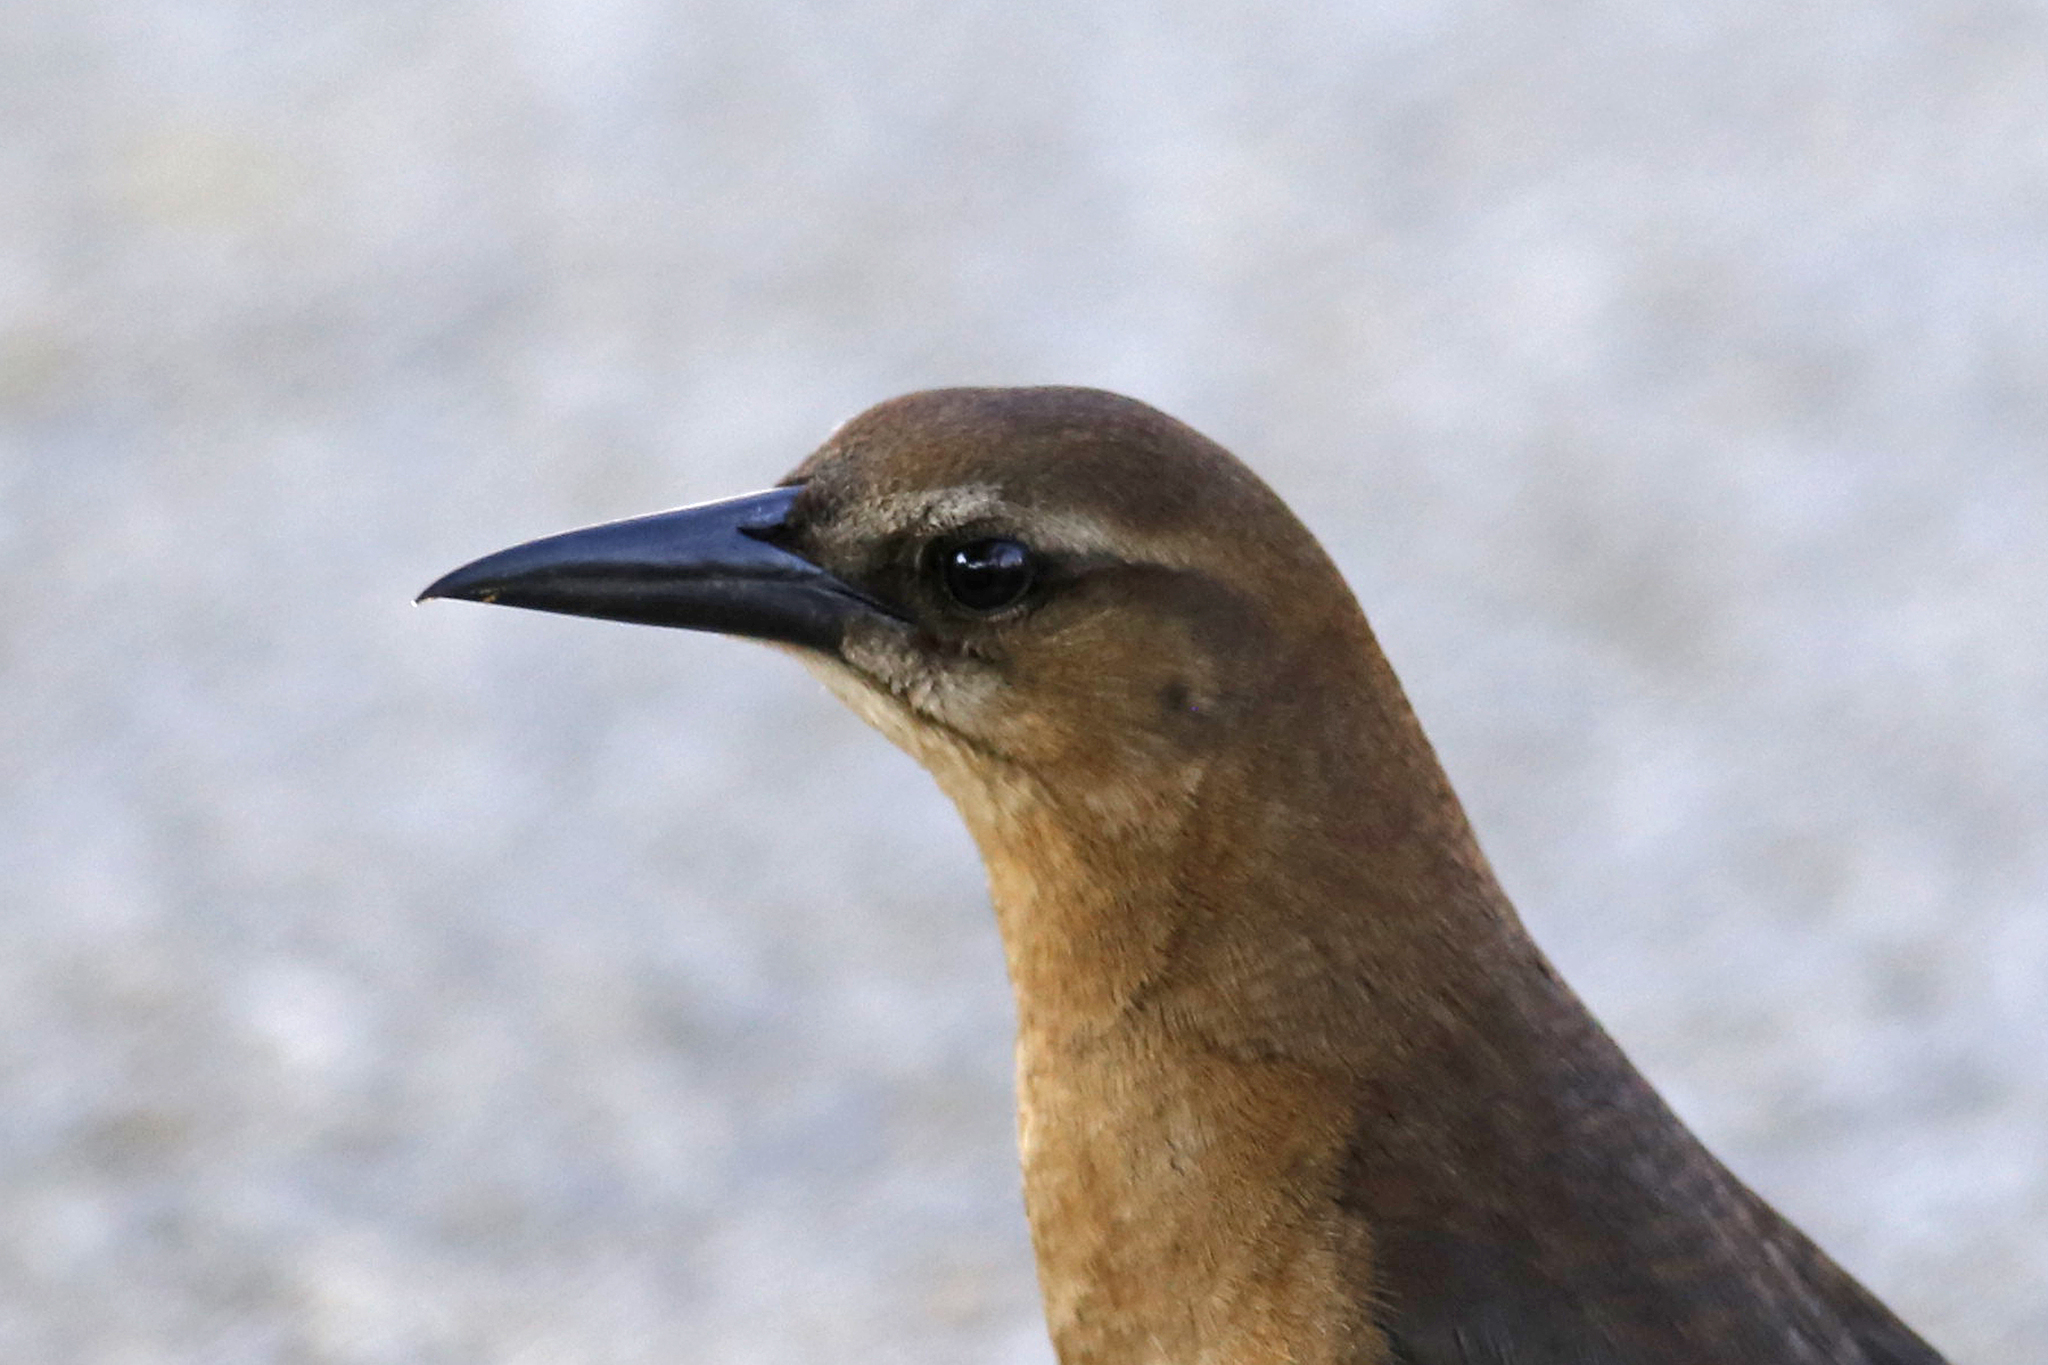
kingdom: Animalia
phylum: Chordata
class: Aves
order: Passeriformes
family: Icteridae
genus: Quiscalus
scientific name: Quiscalus major
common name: Boat-tailed grackle
